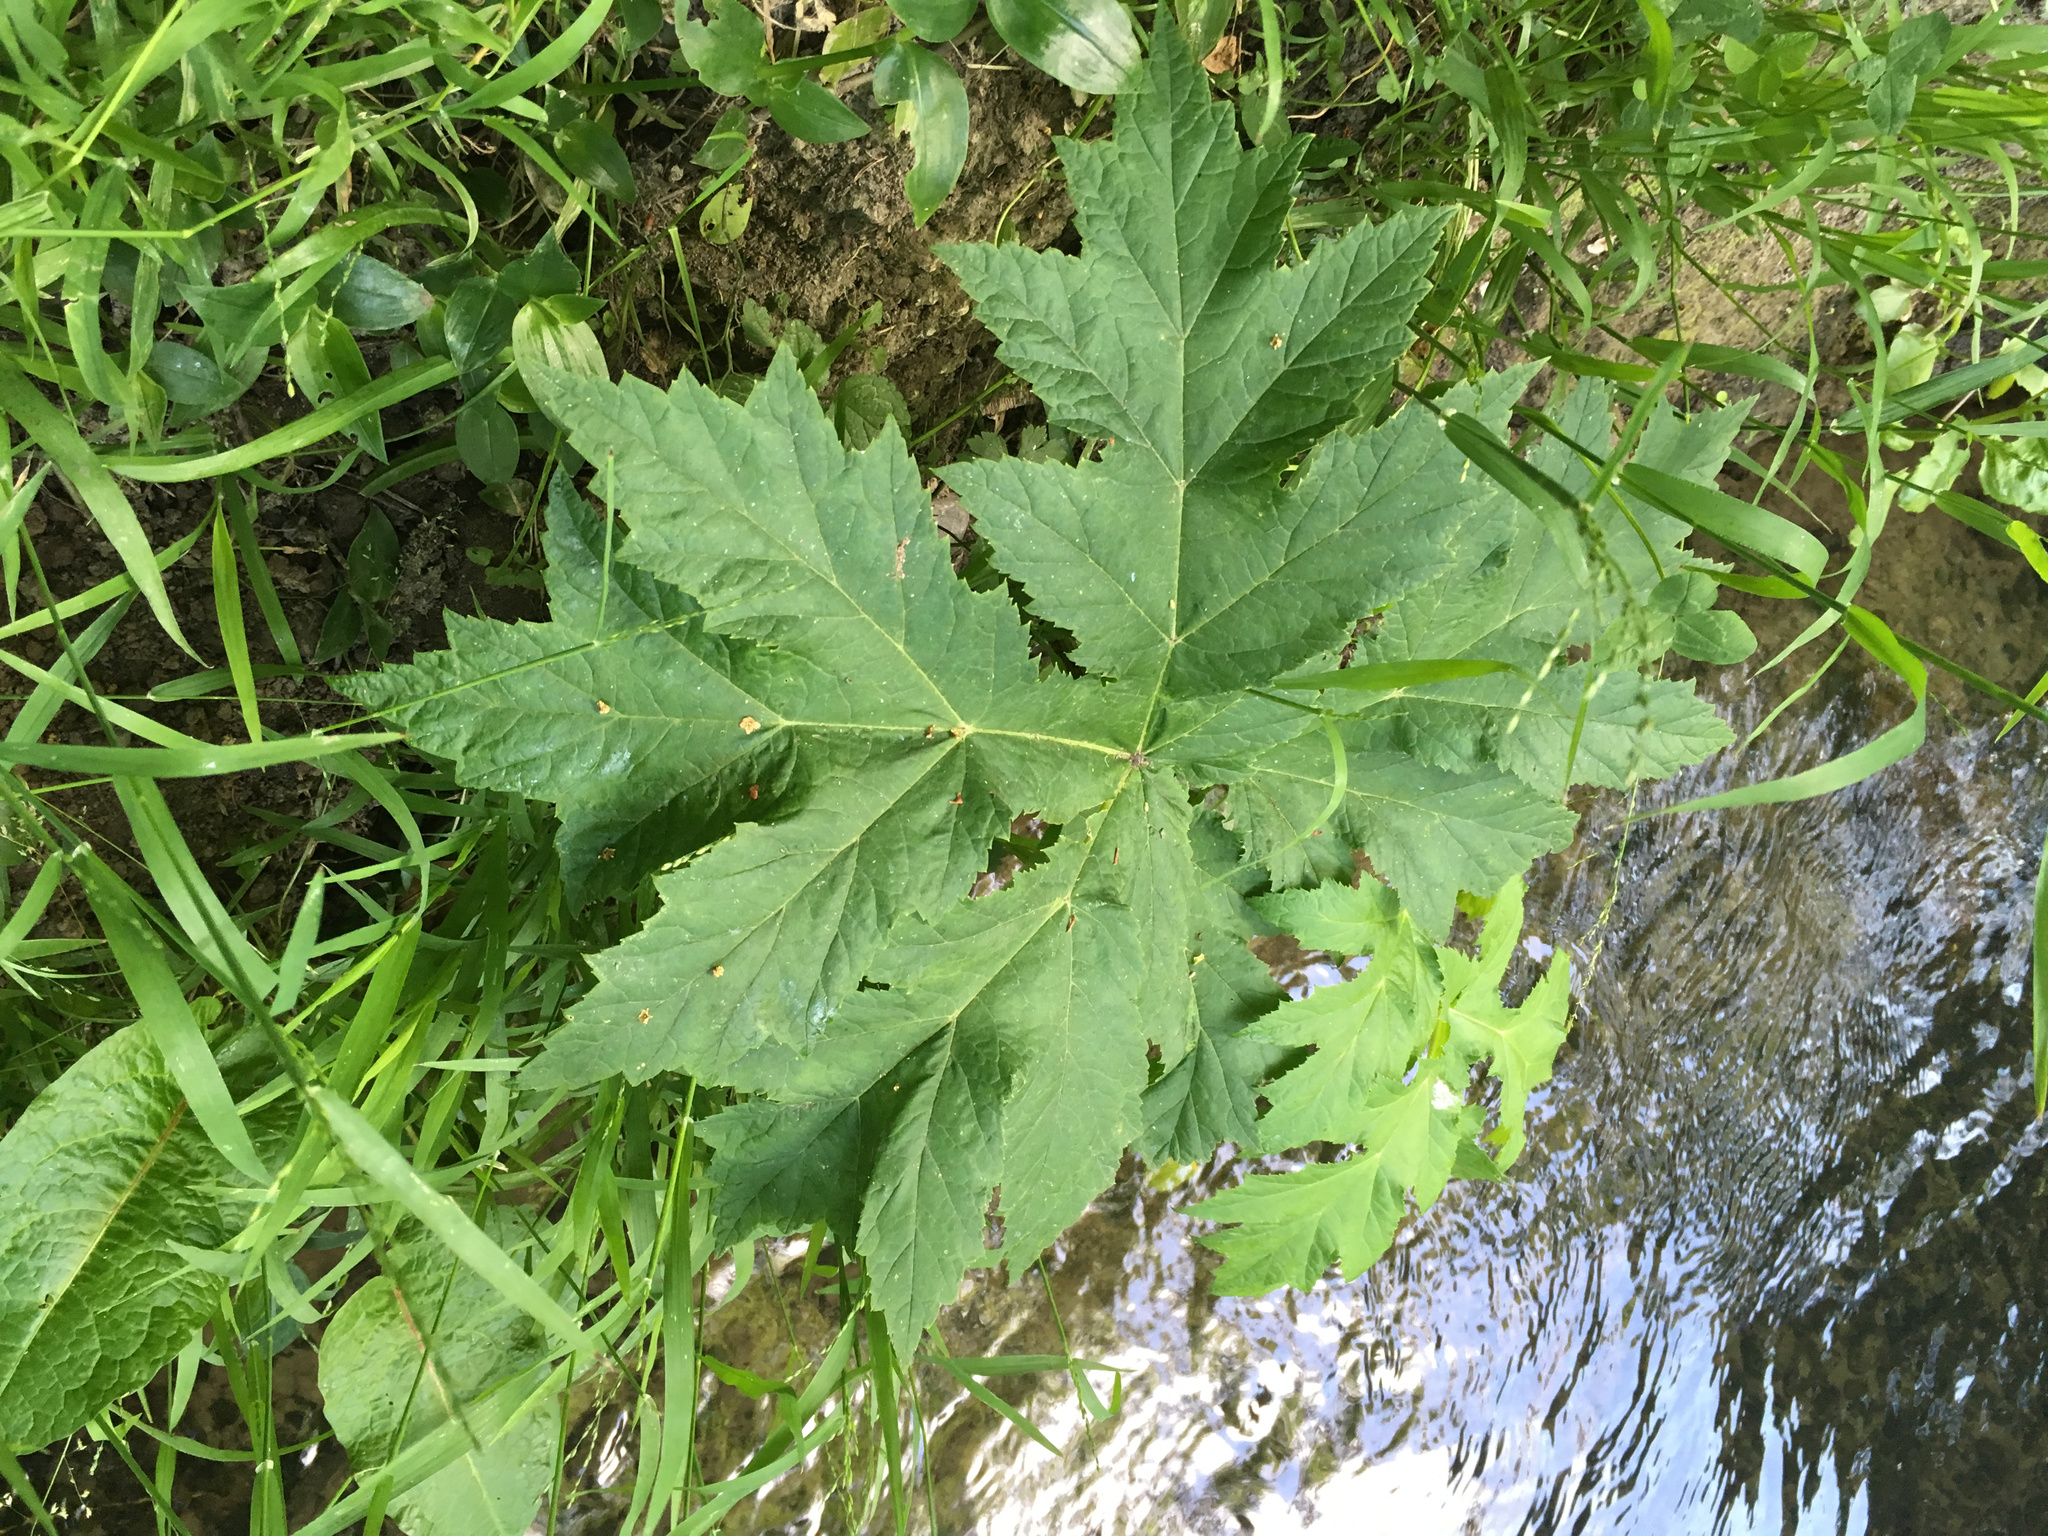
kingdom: Plantae
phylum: Tracheophyta
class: Magnoliopsida
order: Apiales
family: Apiaceae
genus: Heracleum
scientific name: Heracleum mantegazzianum
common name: Giant hogweed
